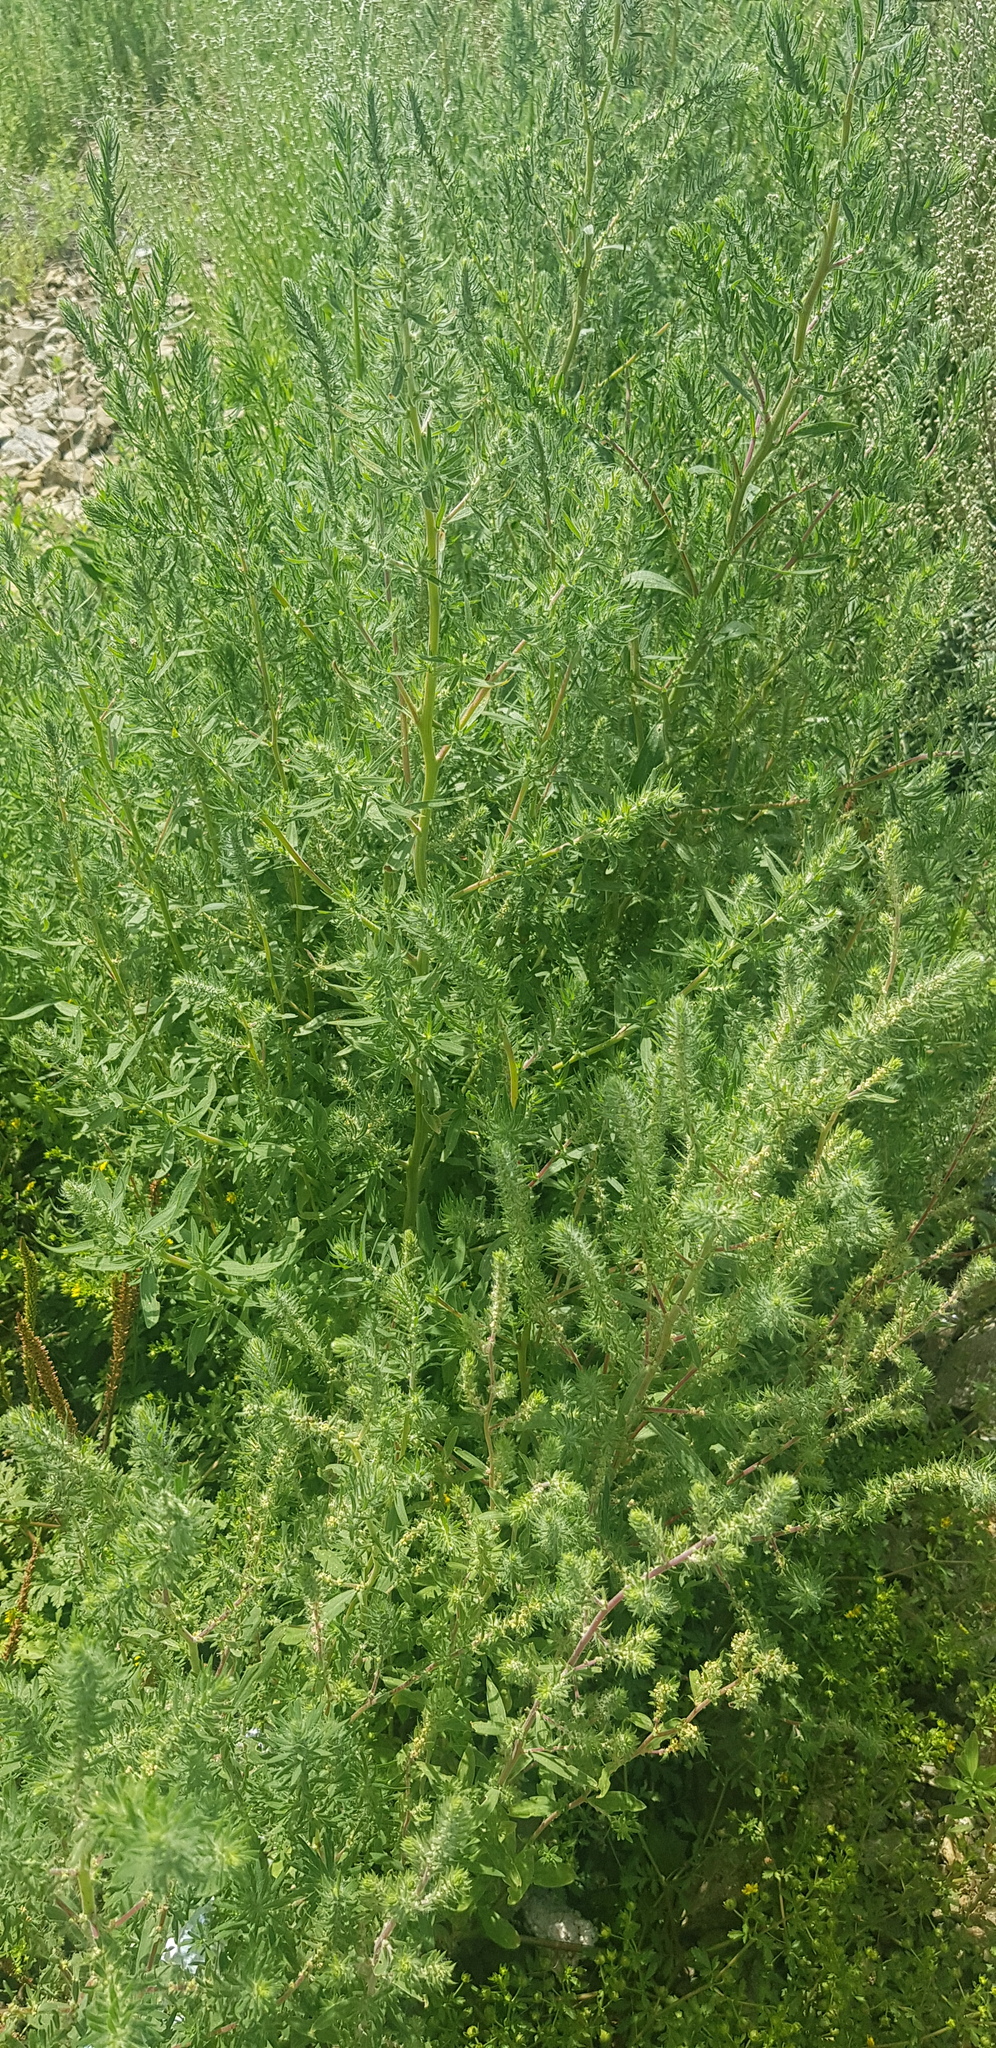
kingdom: Plantae
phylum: Tracheophyta
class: Magnoliopsida
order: Caryophyllales
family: Amaranthaceae
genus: Bassia
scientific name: Bassia scoparia
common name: Belvedere
